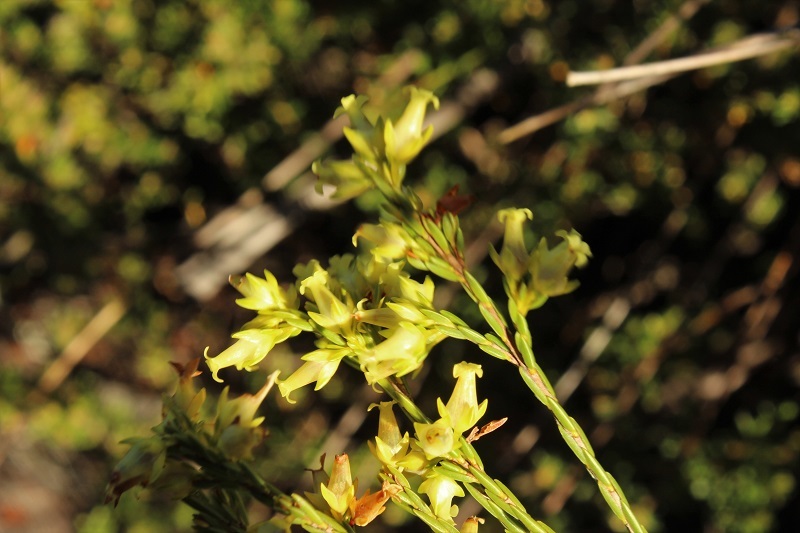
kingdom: Plantae
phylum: Tracheophyta
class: Magnoliopsida
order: Ericales
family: Ericaceae
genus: Erica
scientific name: Erica lutea
